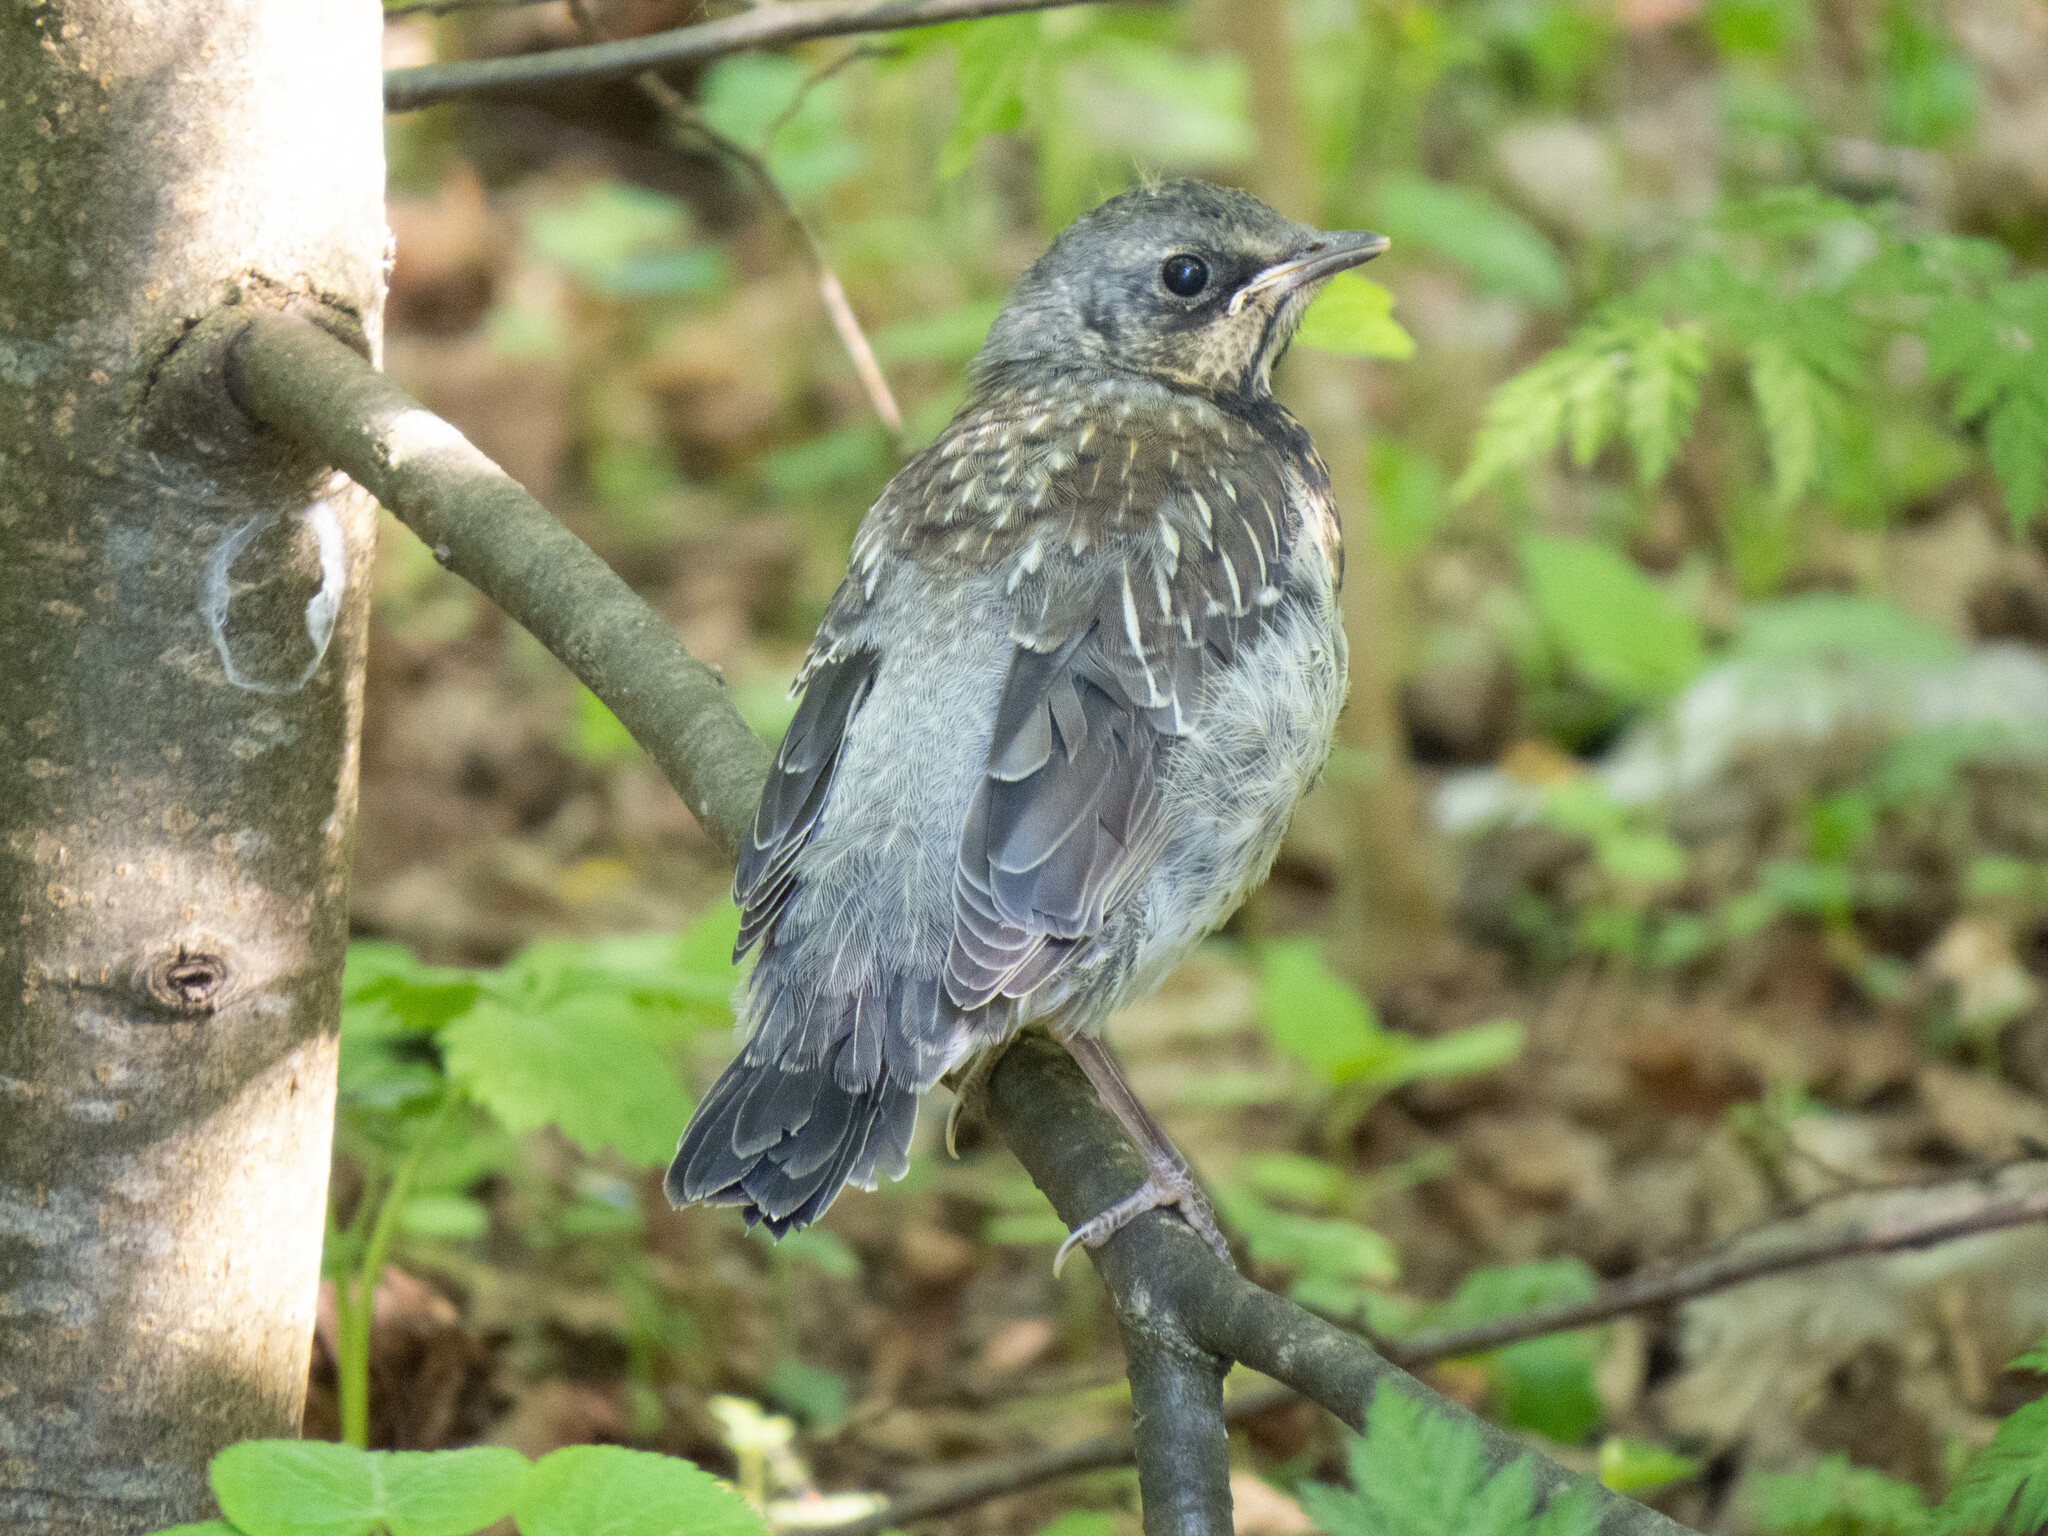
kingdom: Animalia
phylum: Chordata
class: Aves
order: Passeriformes
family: Turdidae
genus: Turdus
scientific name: Turdus pilaris
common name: Fieldfare
